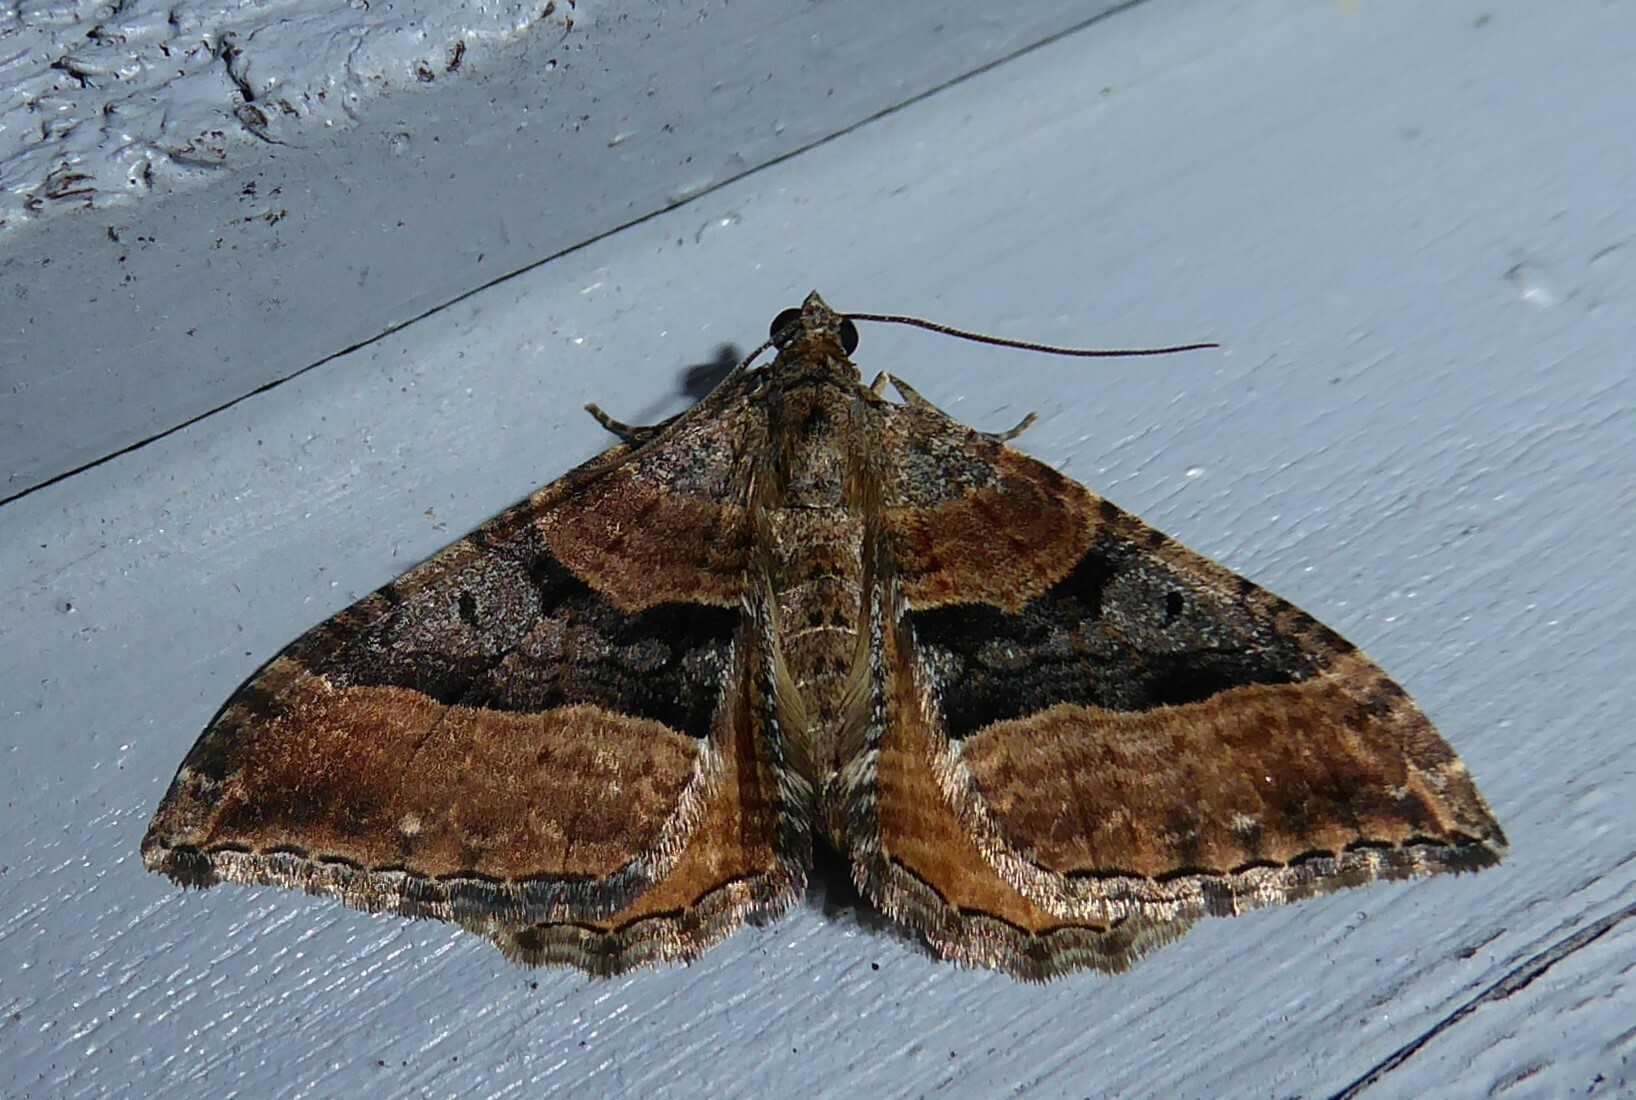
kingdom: Animalia
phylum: Arthropoda
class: Insecta
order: Lepidoptera
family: Geometridae
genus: Hydriomena
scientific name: Hydriomena deltoidata
